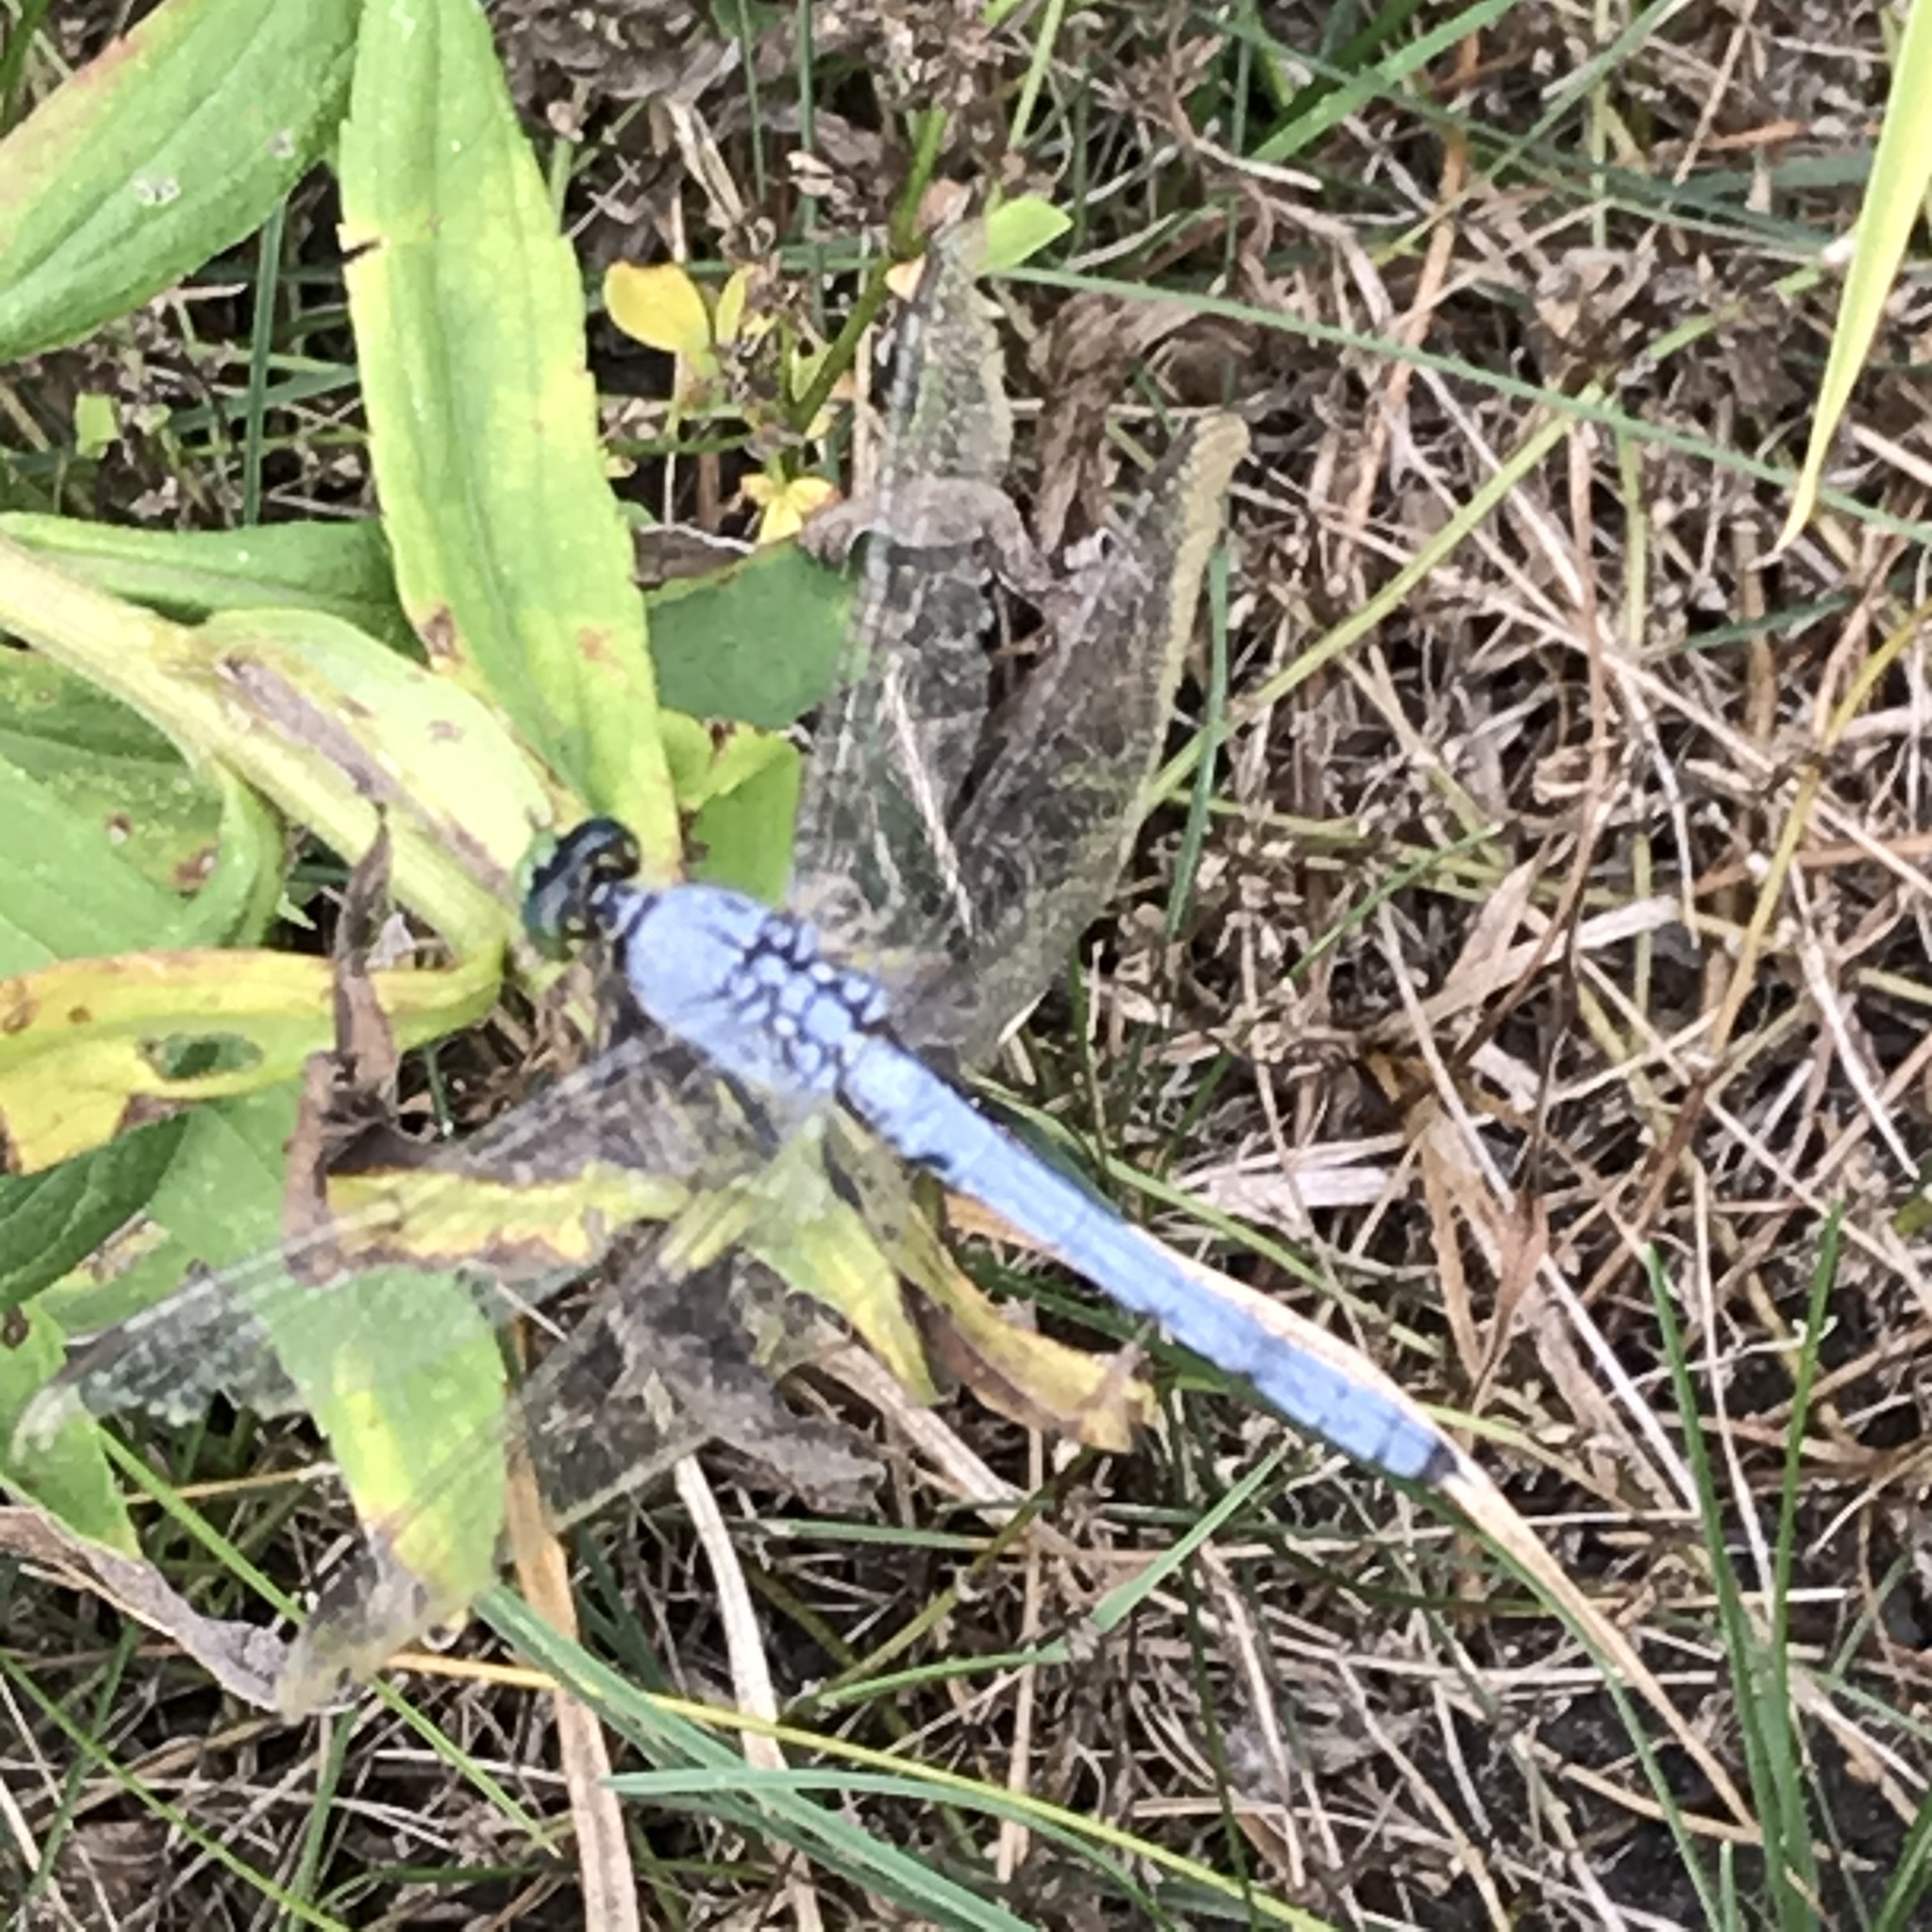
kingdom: Animalia
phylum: Arthropoda
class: Insecta
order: Odonata
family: Libellulidae
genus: Erythemis
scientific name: Erythemis simplicicollis
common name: Eastern pondhawk
